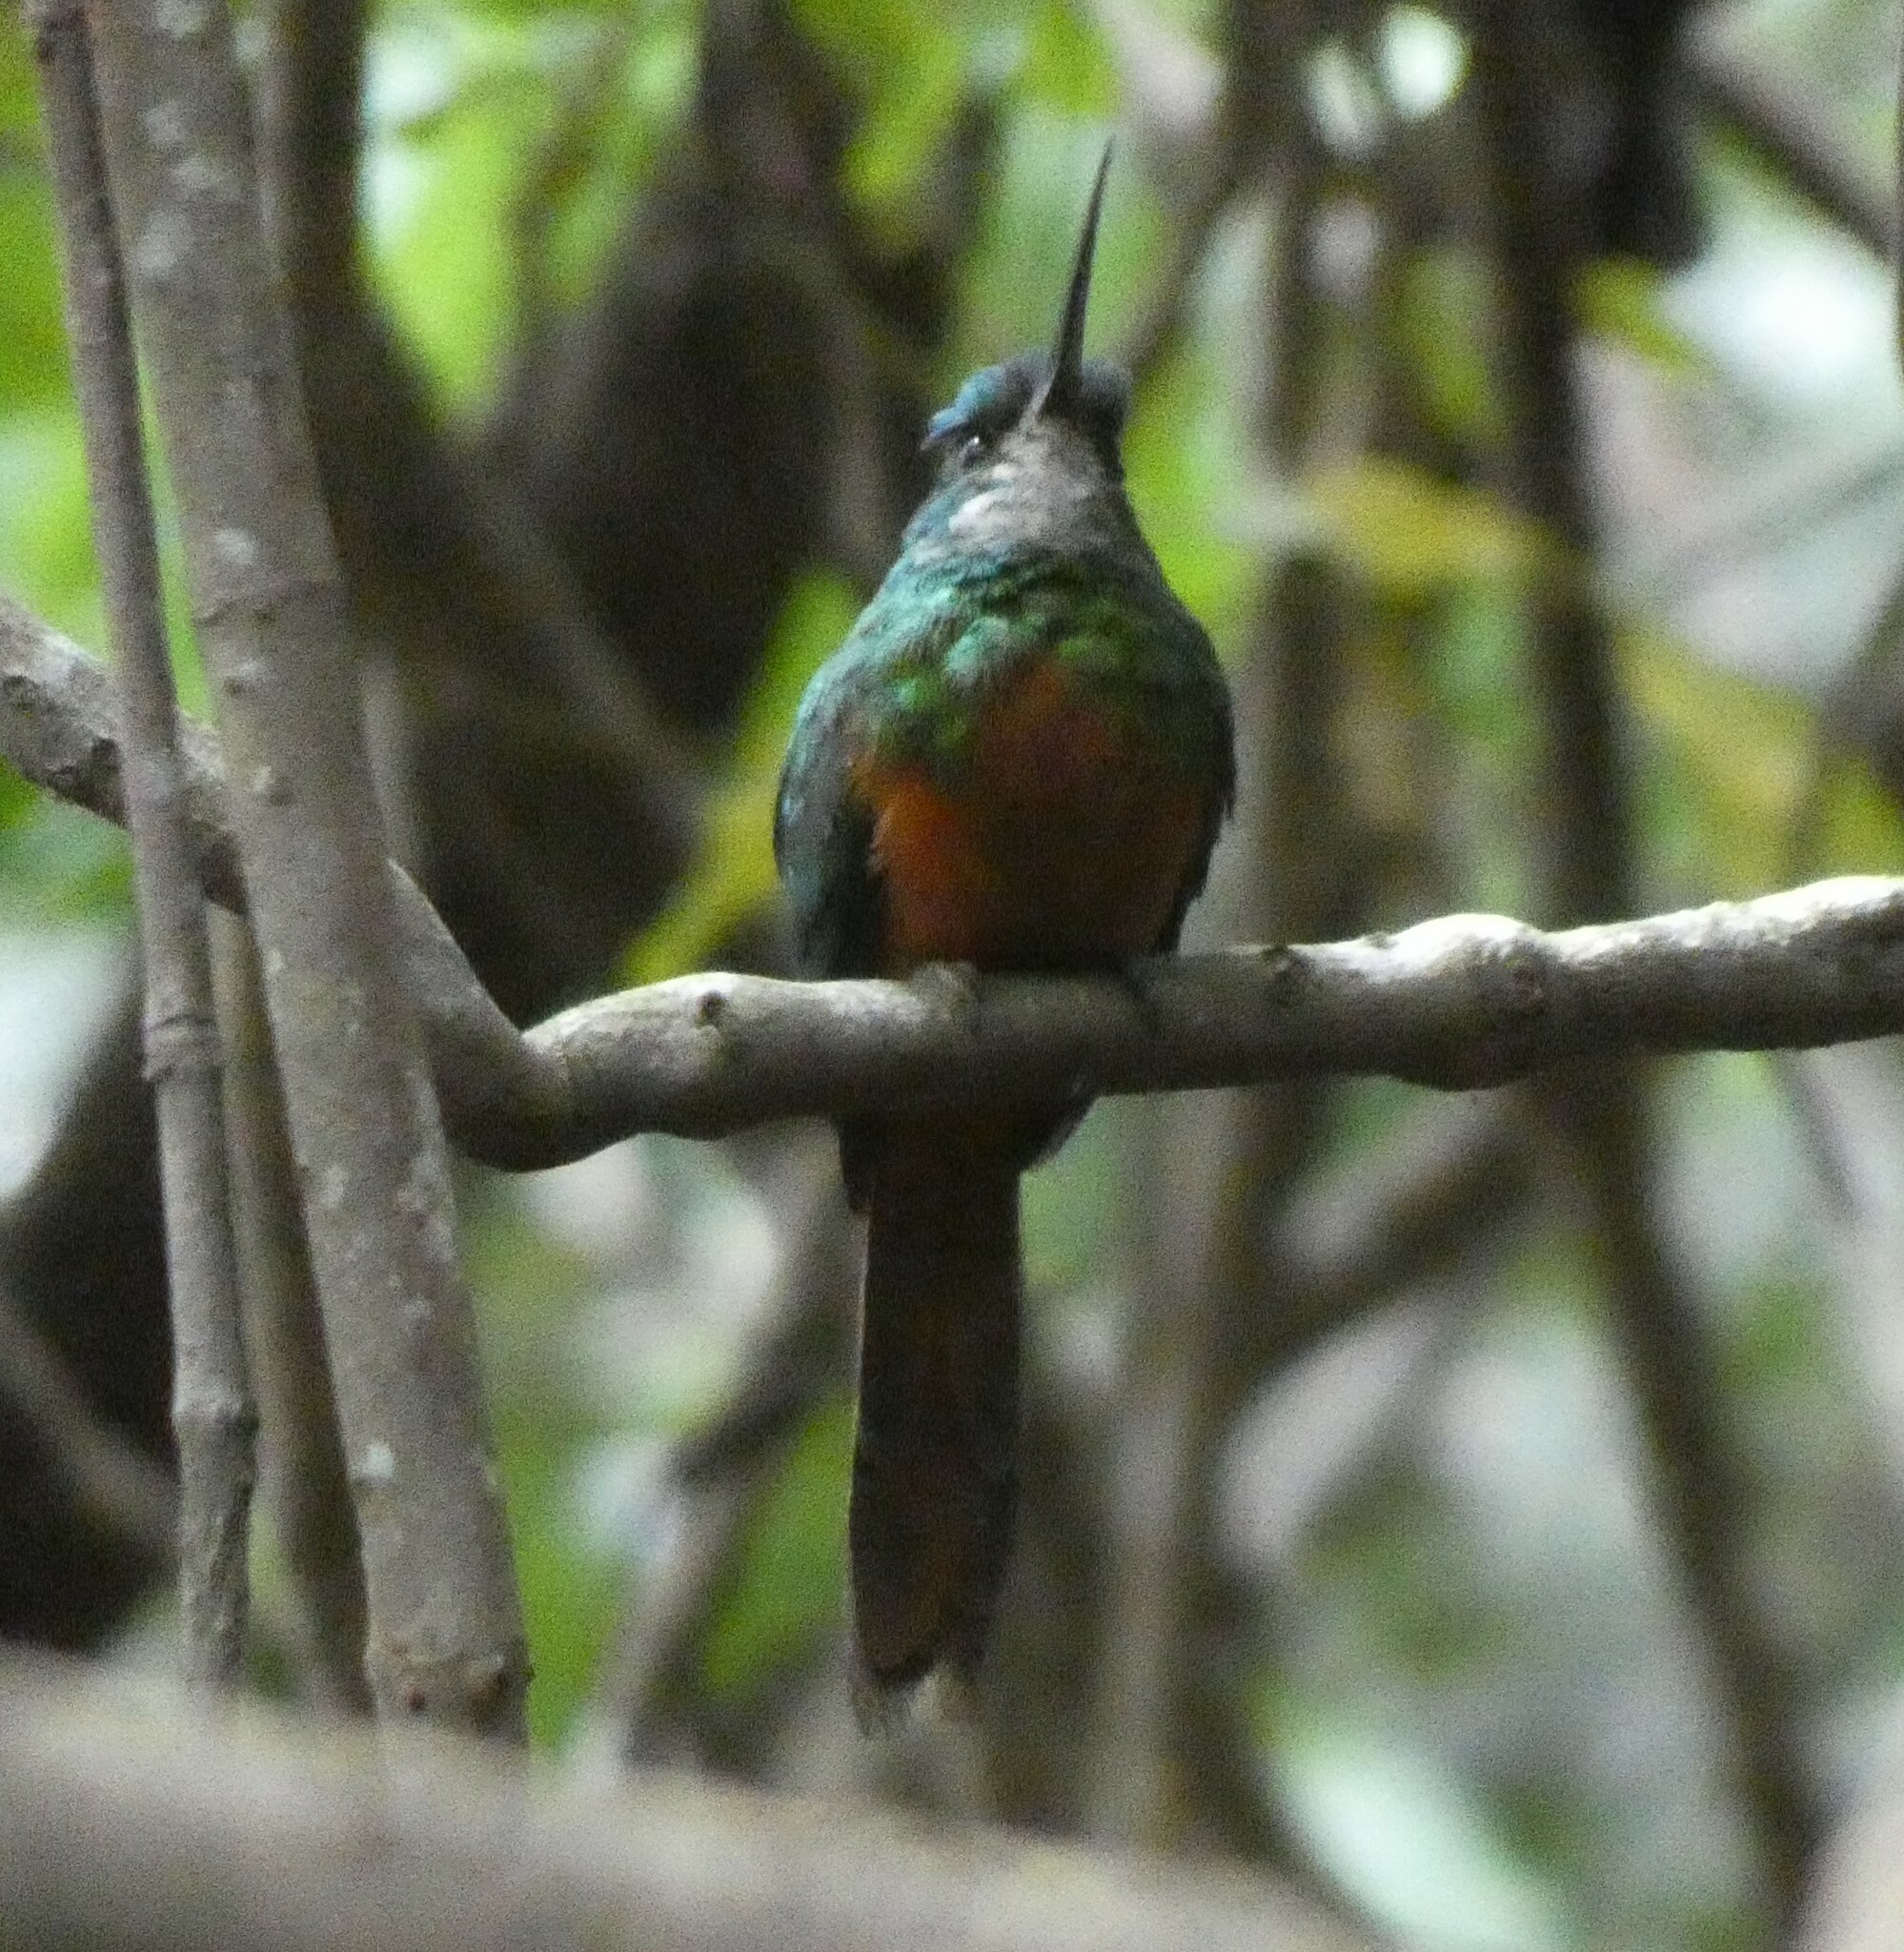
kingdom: Animalia
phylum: Chordata
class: Aves
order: Piciformes
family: Galbulidae
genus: Galbula
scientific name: Galbula ruficauda
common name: Rufous-tailed jacamar
